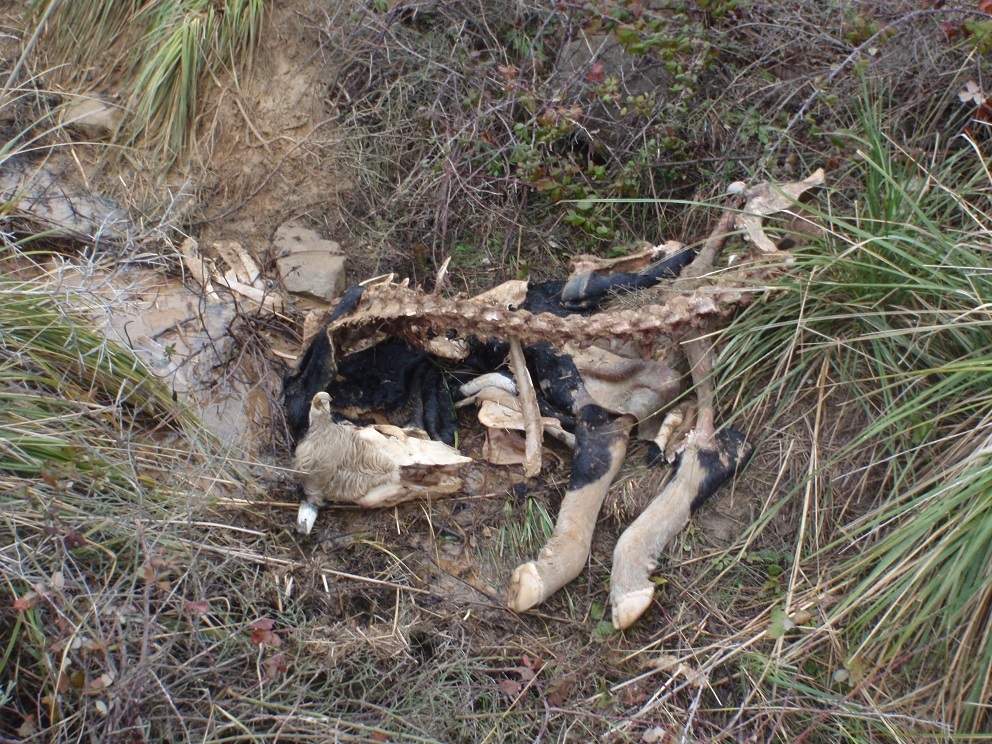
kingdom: Animalia
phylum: Chordata
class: Mammalia
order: Artiodactyla
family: Bovidae
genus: Bos
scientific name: Bos taurus
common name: Domesticated cattle
